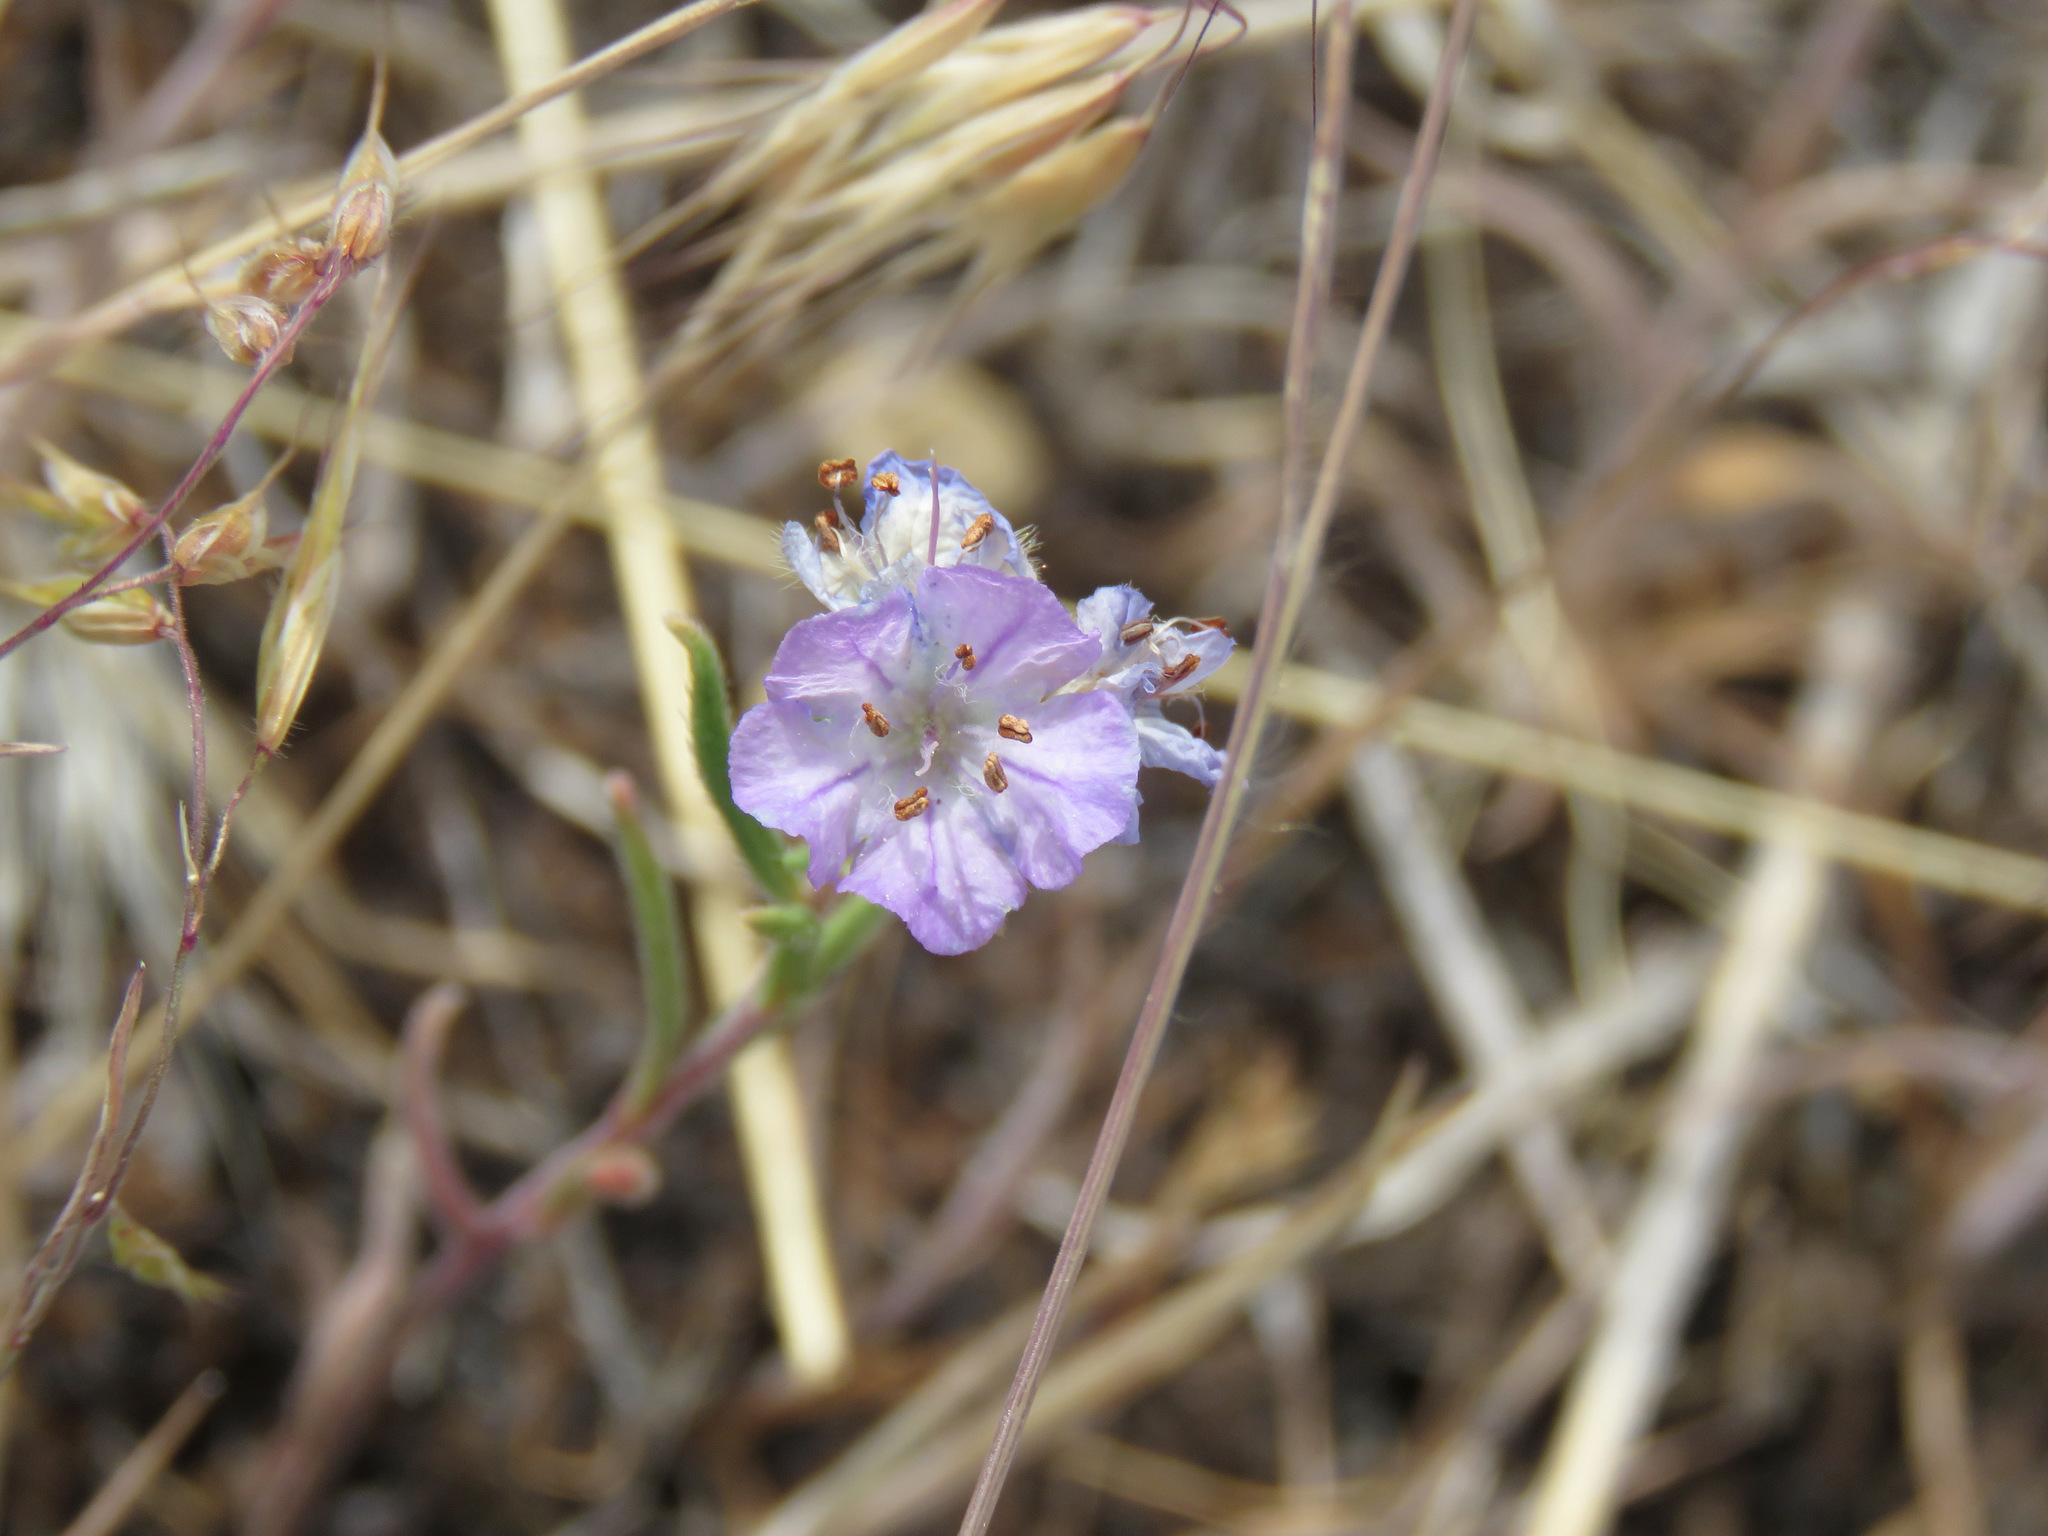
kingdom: Plantae
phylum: Tracheophyta
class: Magnoliopsida
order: Boraginales
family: Hydrophyllaceae
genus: Phacelia
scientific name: Phacelia linearis
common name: Linear-leaved phacelia
